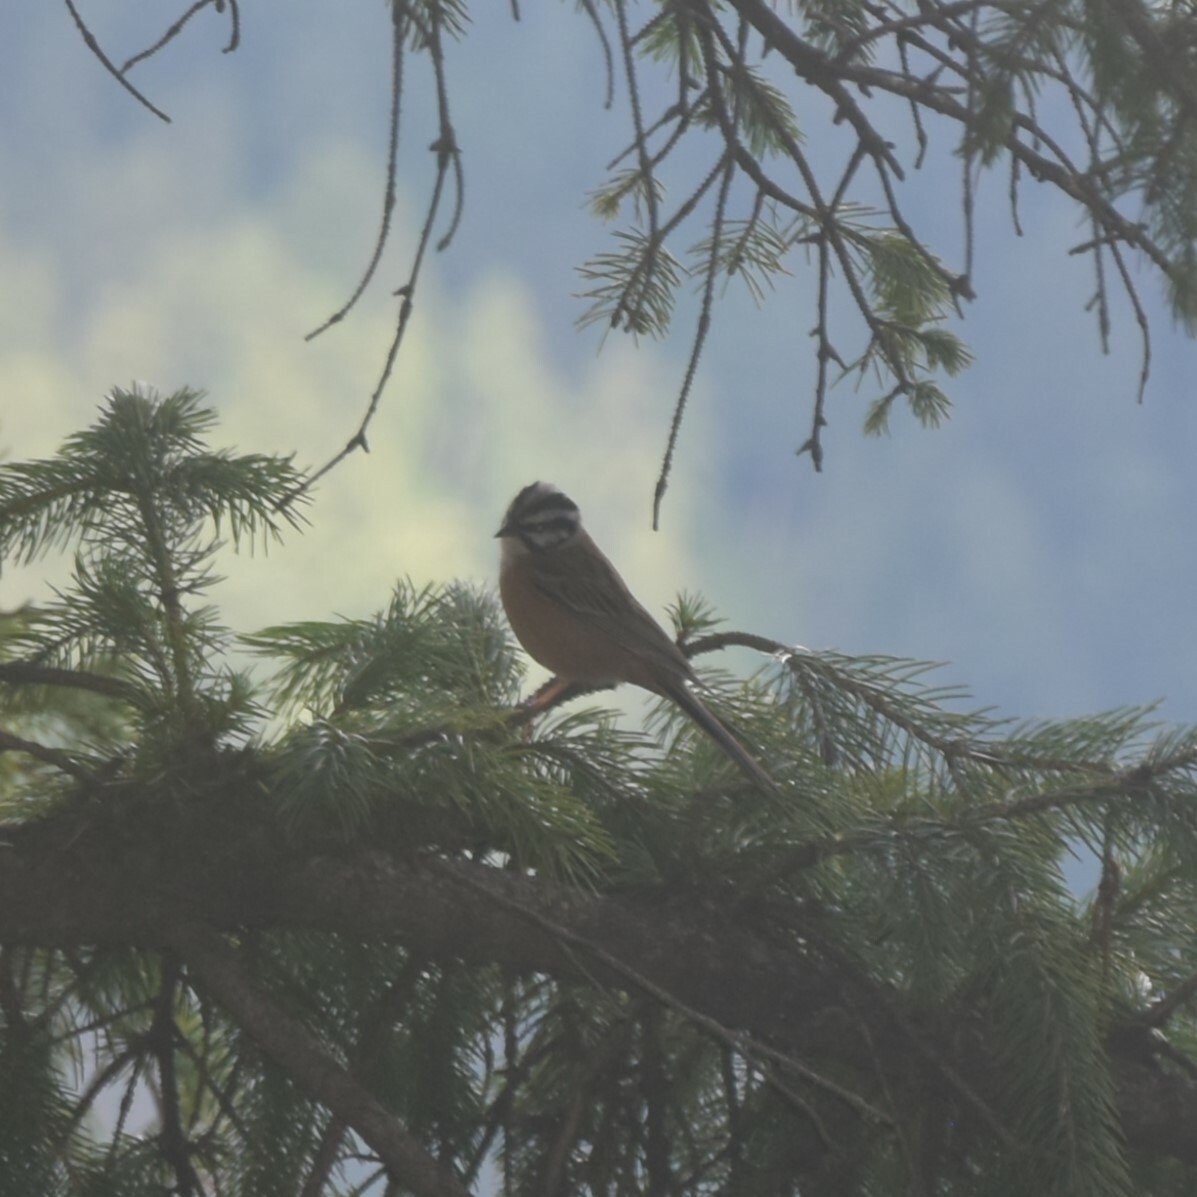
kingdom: Animalia
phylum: Chordata
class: Aves
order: Passeriformes
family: Emberizidae
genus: Emberiza
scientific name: Emberiza cia
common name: Rock bunting
